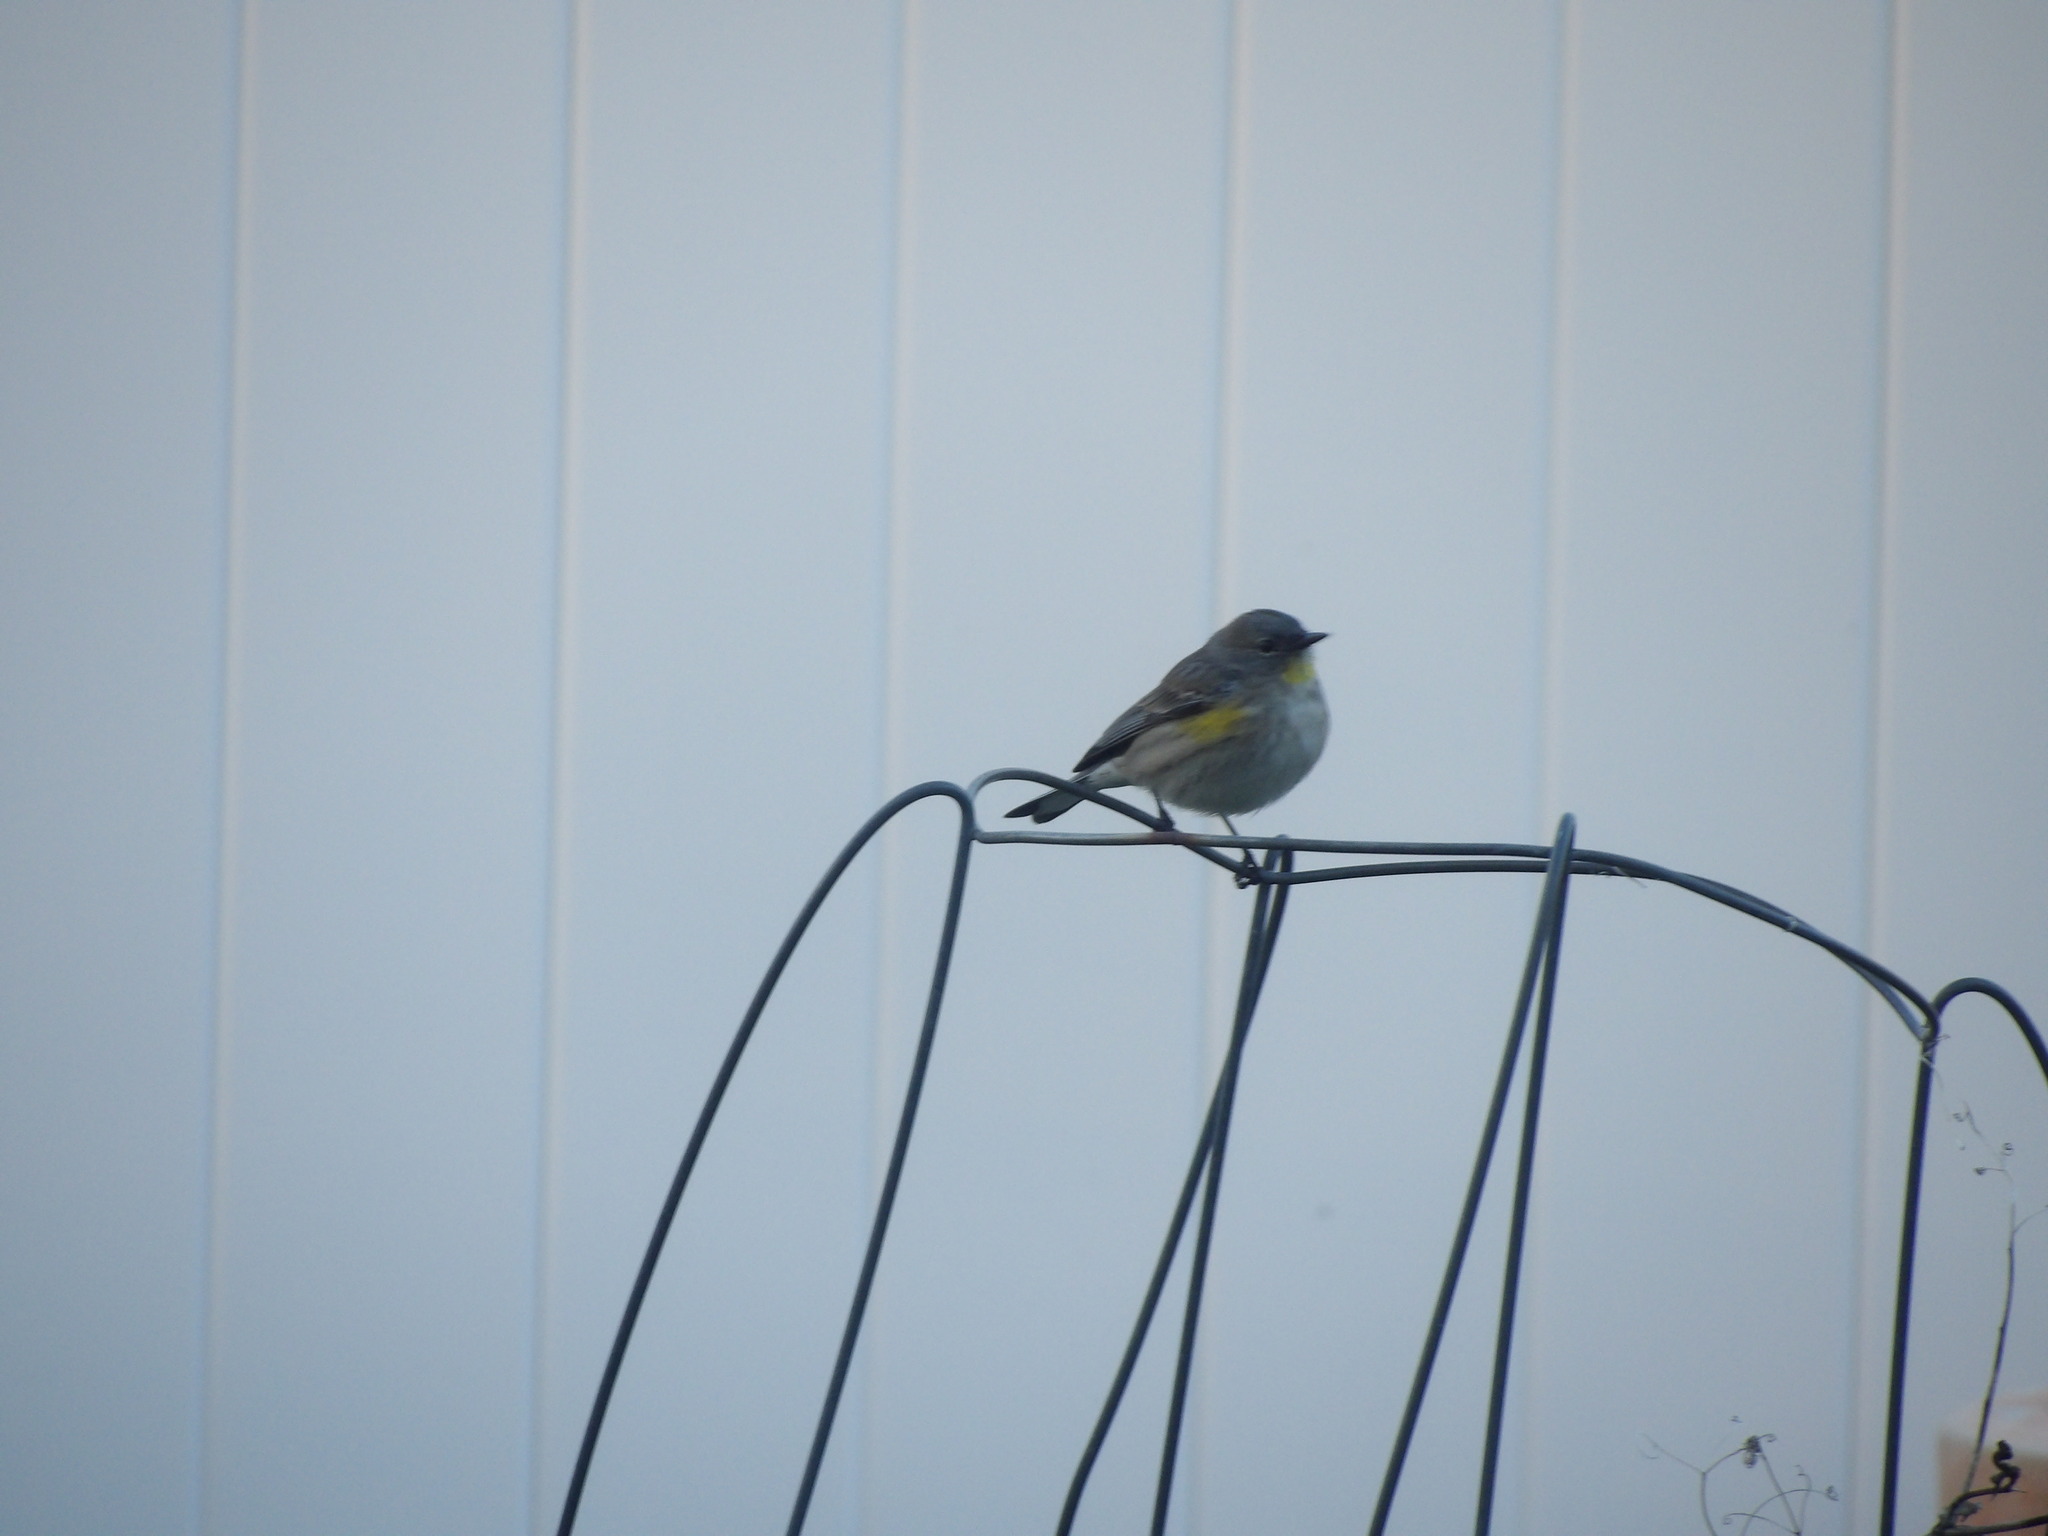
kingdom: Animalia
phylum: Chordata
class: Aves
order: Passeriformes
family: Parulidae
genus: Setophaga
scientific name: Setophaga coronata
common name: Myrtle warbler
